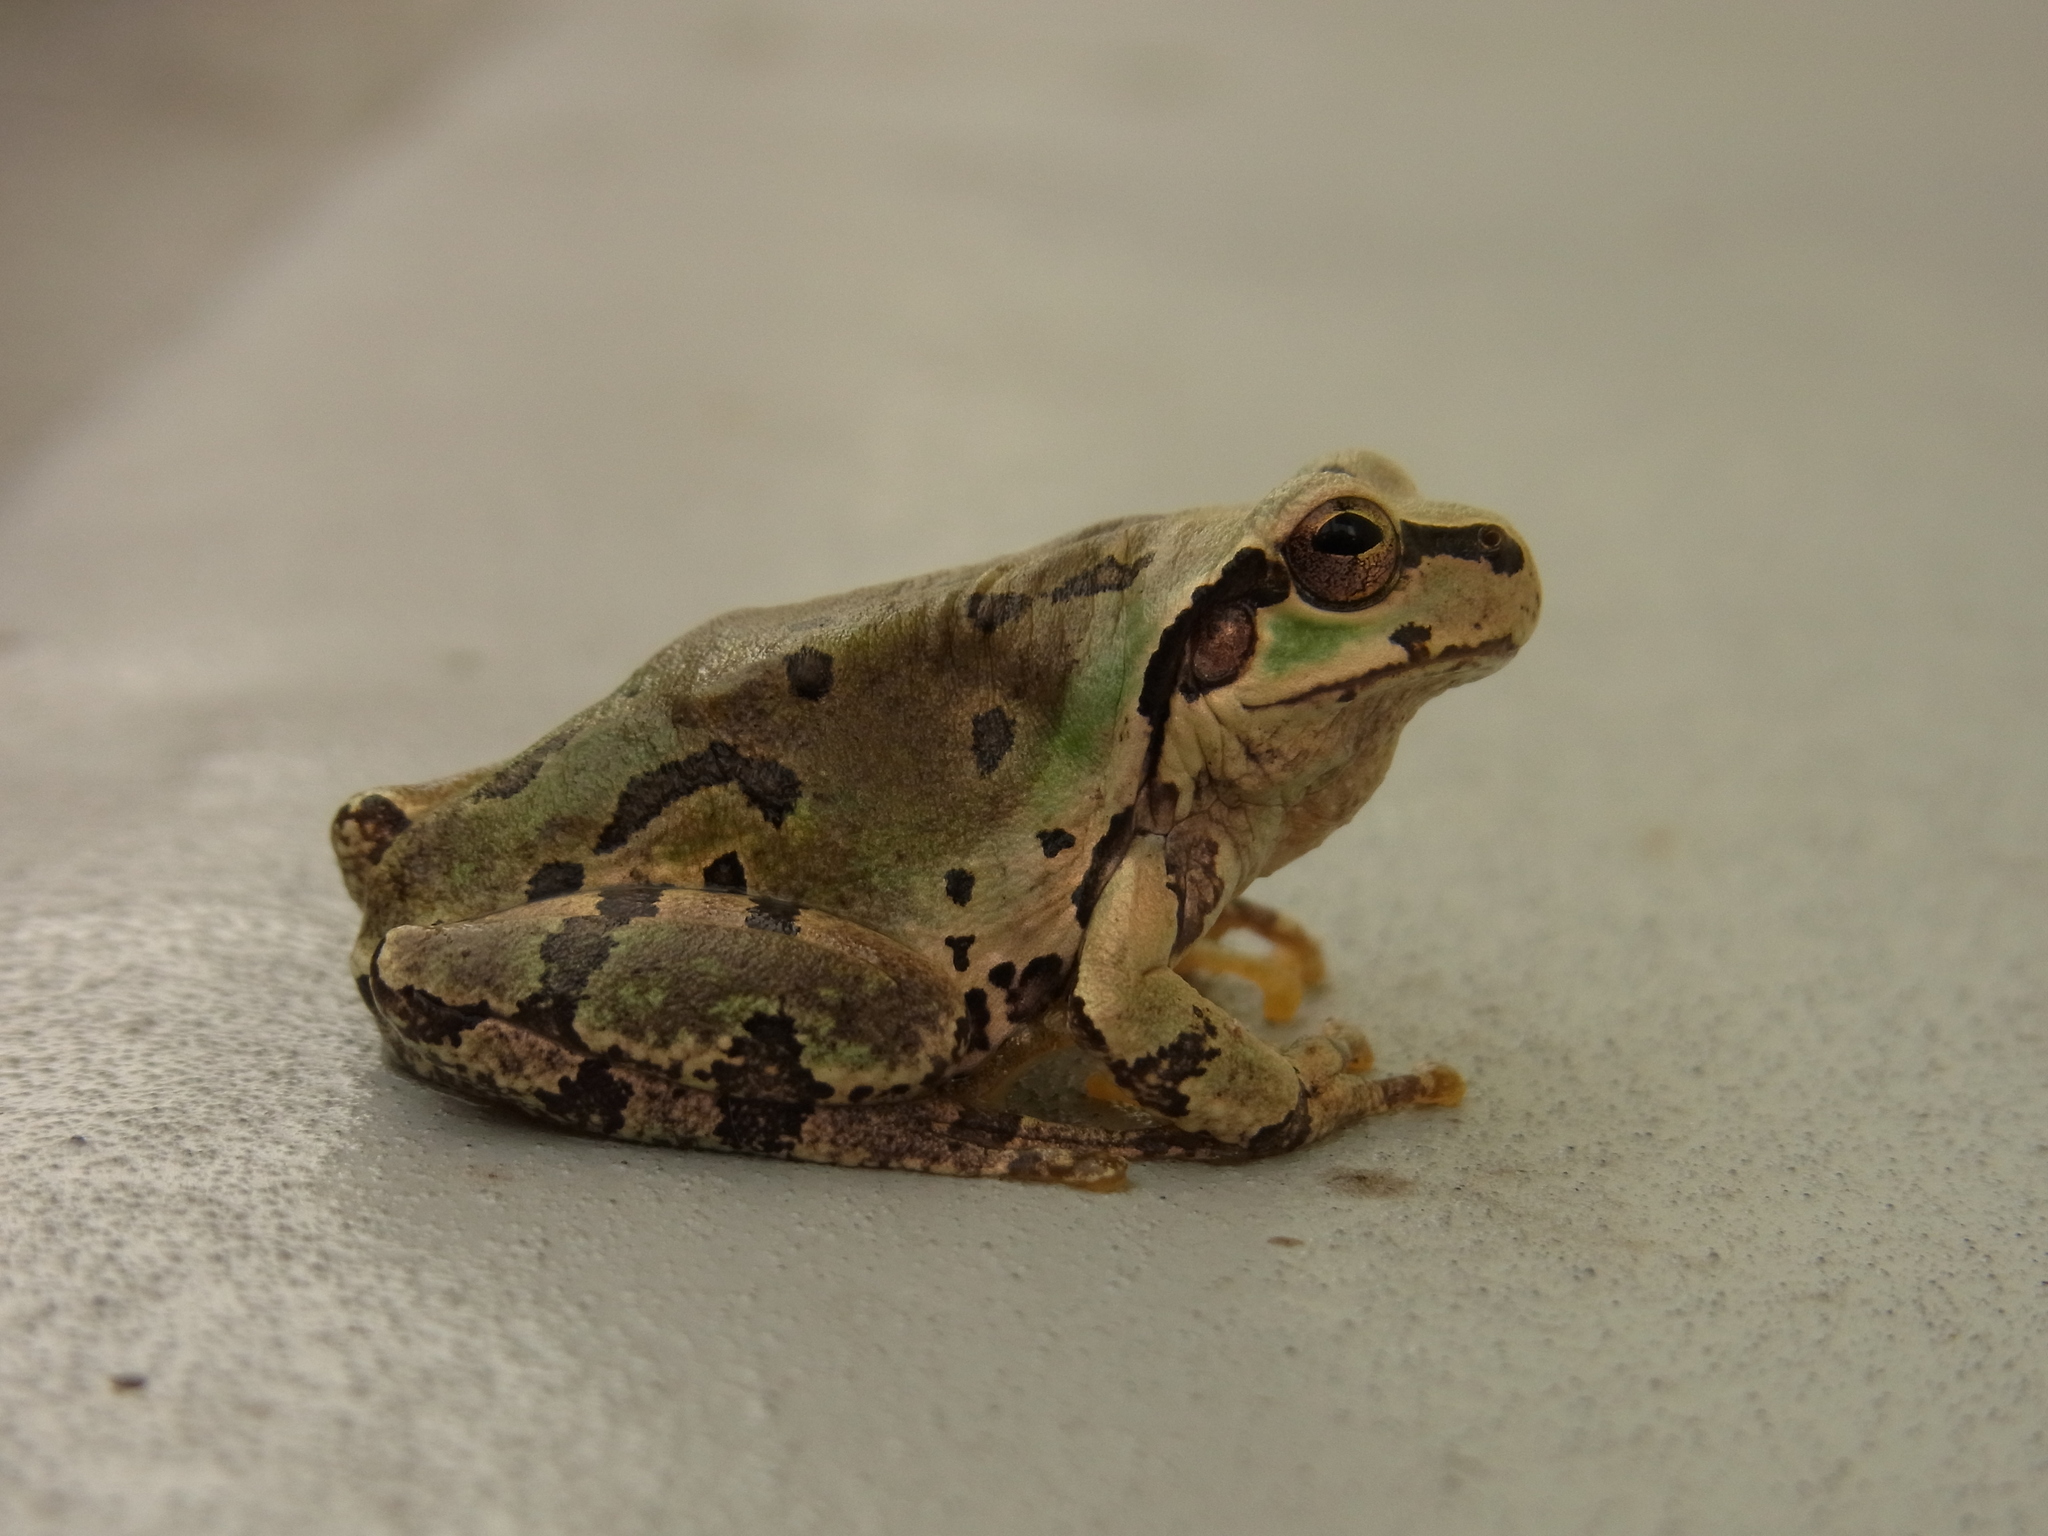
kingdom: Animalia
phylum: Chordata
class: Amphibia
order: Anura
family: Hylidae
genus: Dryophytes
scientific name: Dryophytes japonicus
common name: Japanese treefrog
